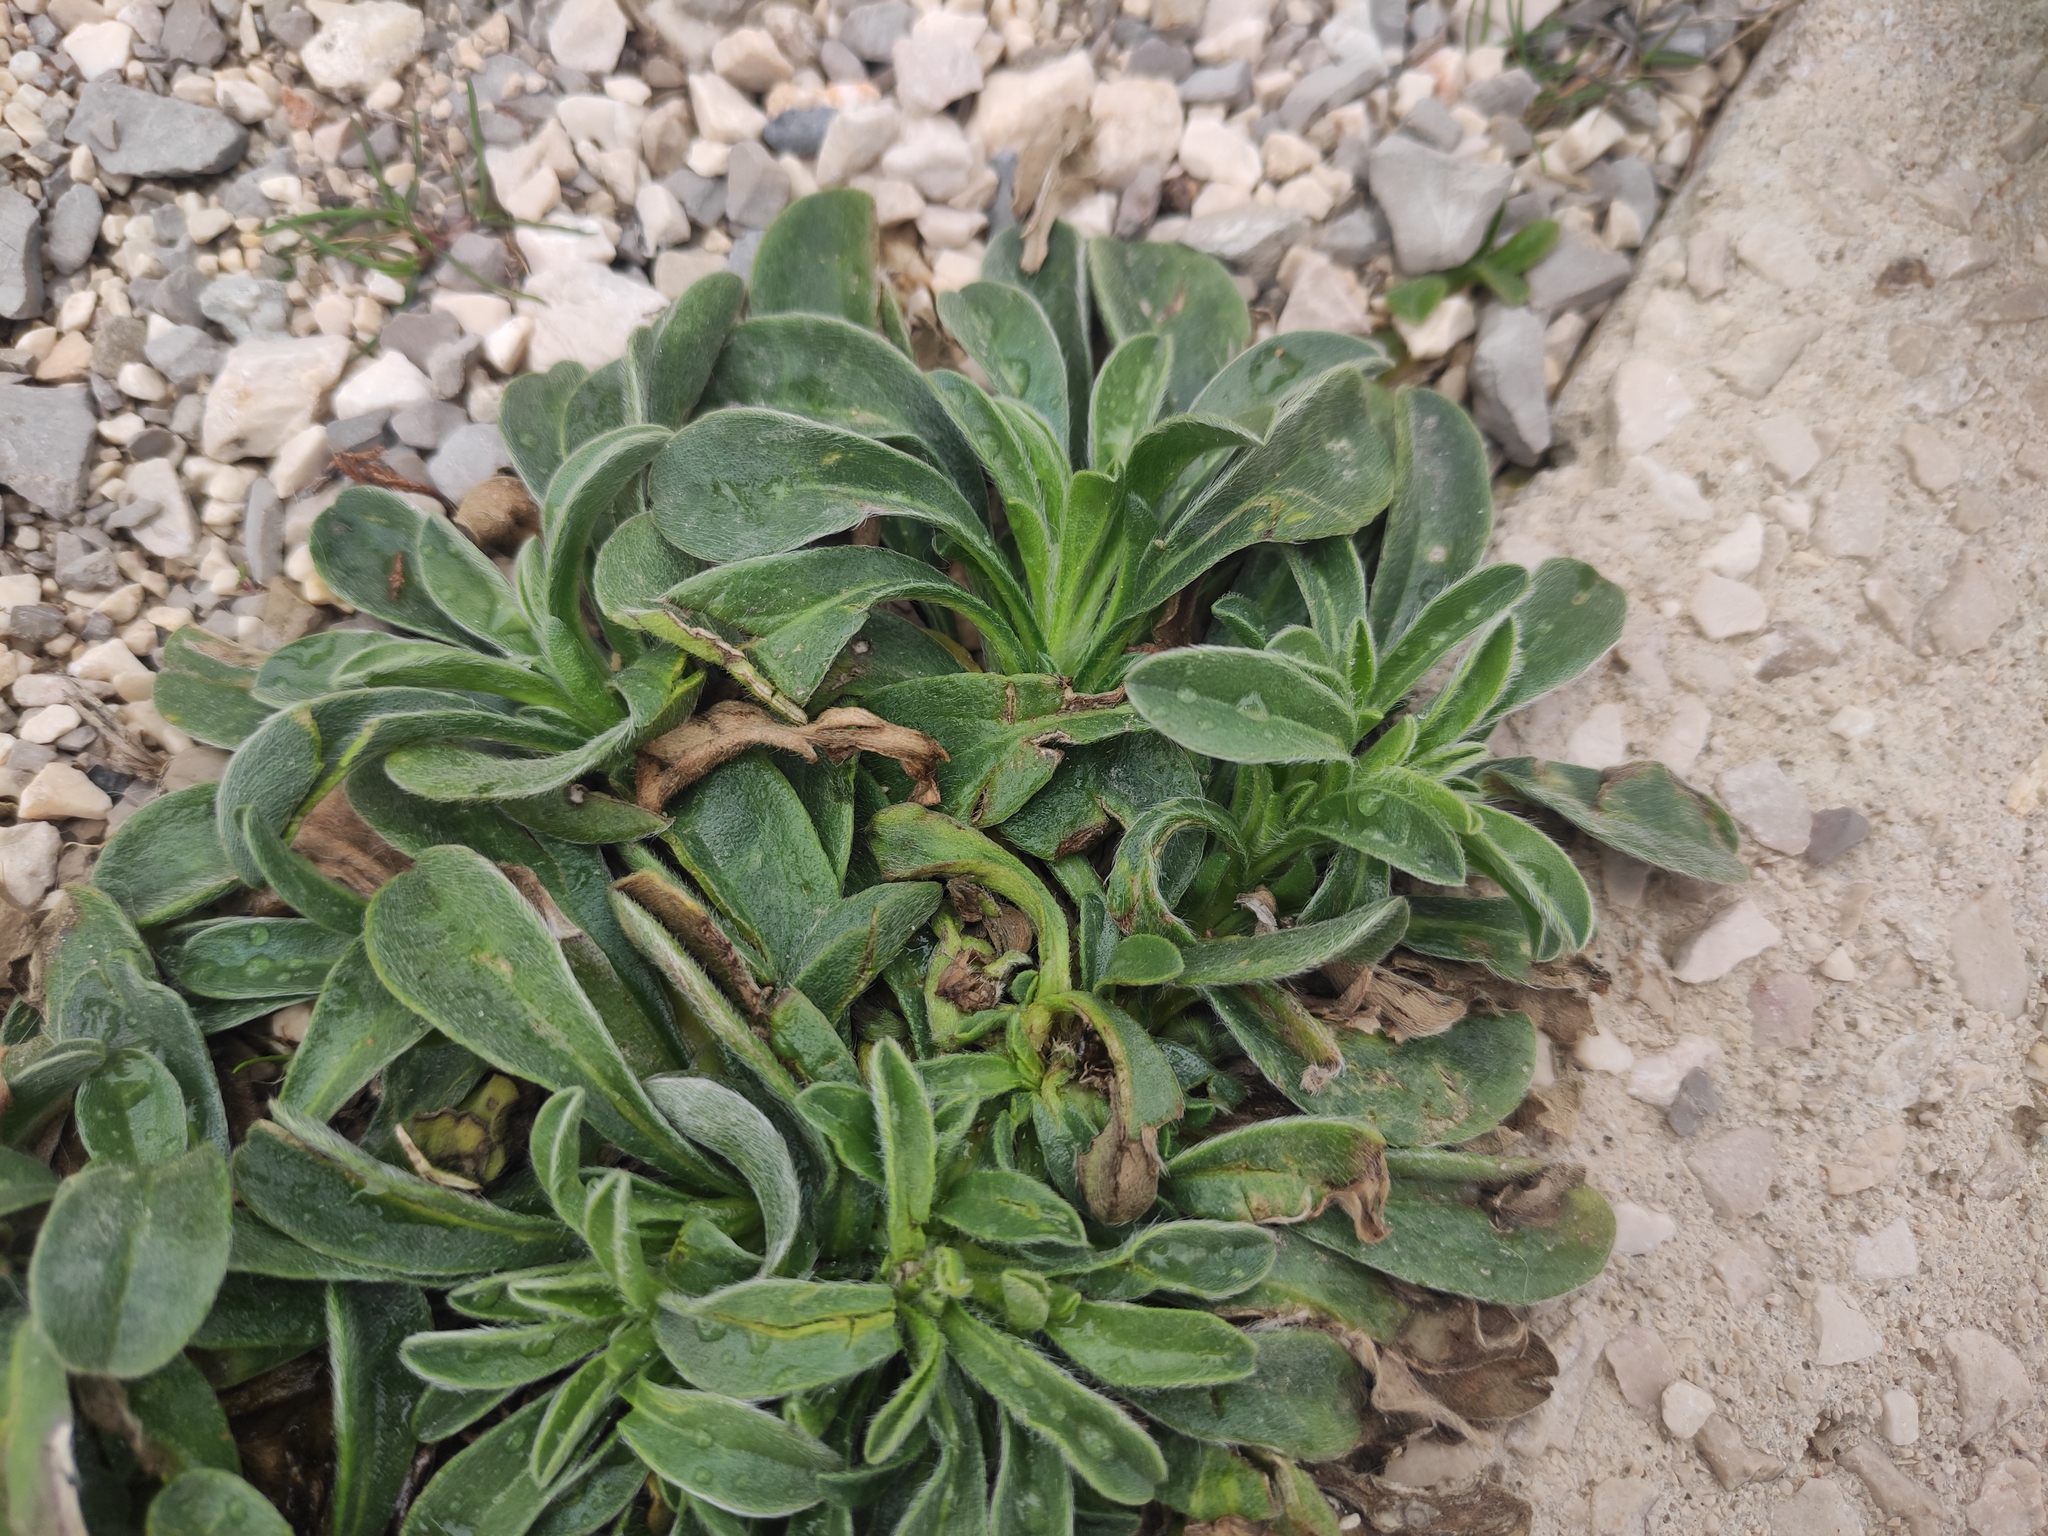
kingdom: Plantae
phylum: Tracheophyta
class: Magnoliopsida
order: Asterales
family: Asteraceae
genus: Pallenis
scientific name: Pallenis maritima
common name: Golden coin daisy
